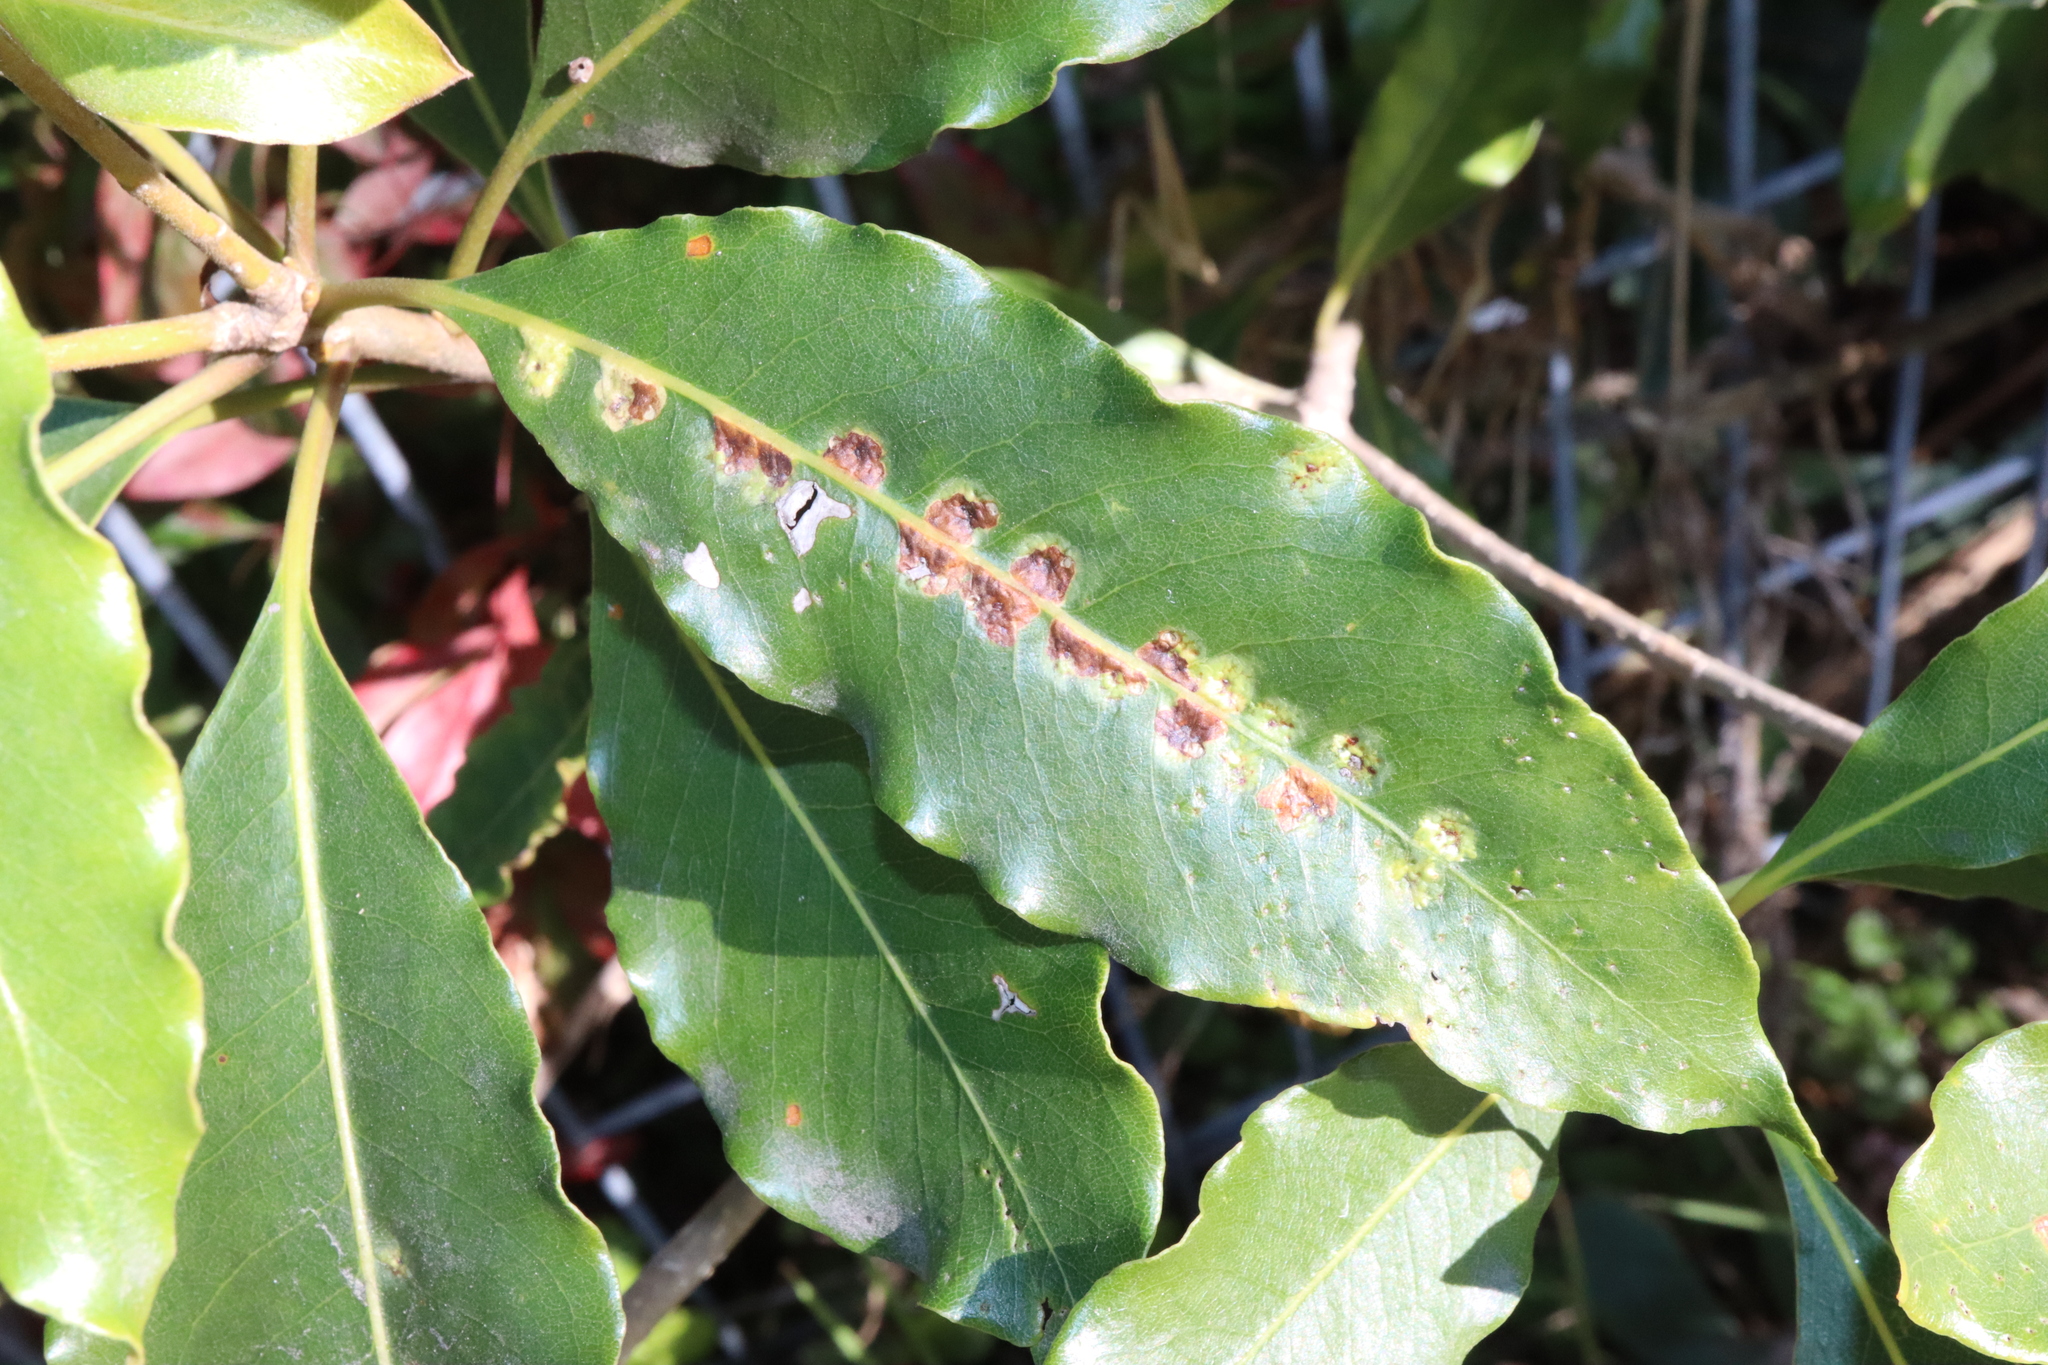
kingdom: Animalia
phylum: Arthropoda
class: Insecta
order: Diptera
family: Agromyzidae
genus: Phytoliriomyza
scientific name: Phytoliriomyza pittosporophylli
